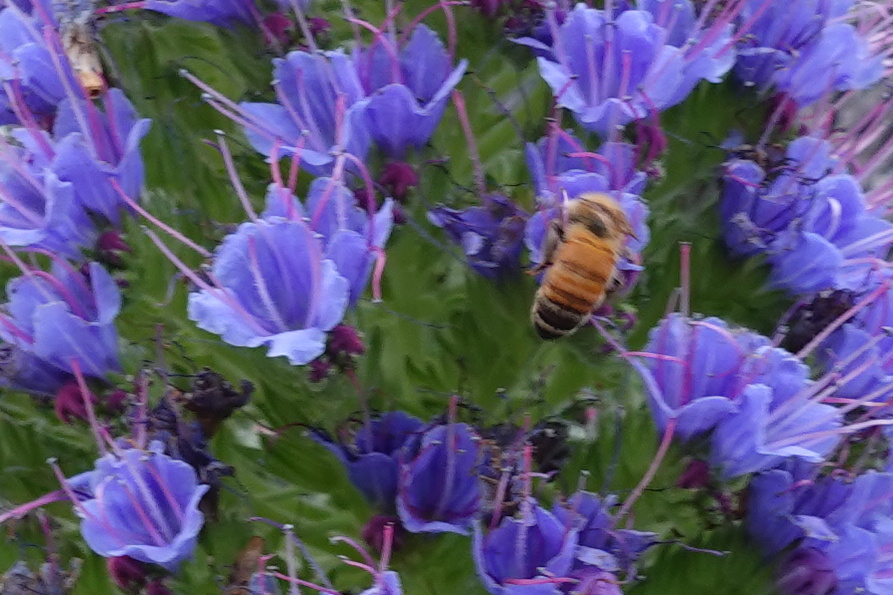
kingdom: Animalia
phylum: Arthropoda
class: Insecta
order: Hymenoptera
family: Apidae
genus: Apis
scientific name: Apis mellifera
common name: Honey bee
